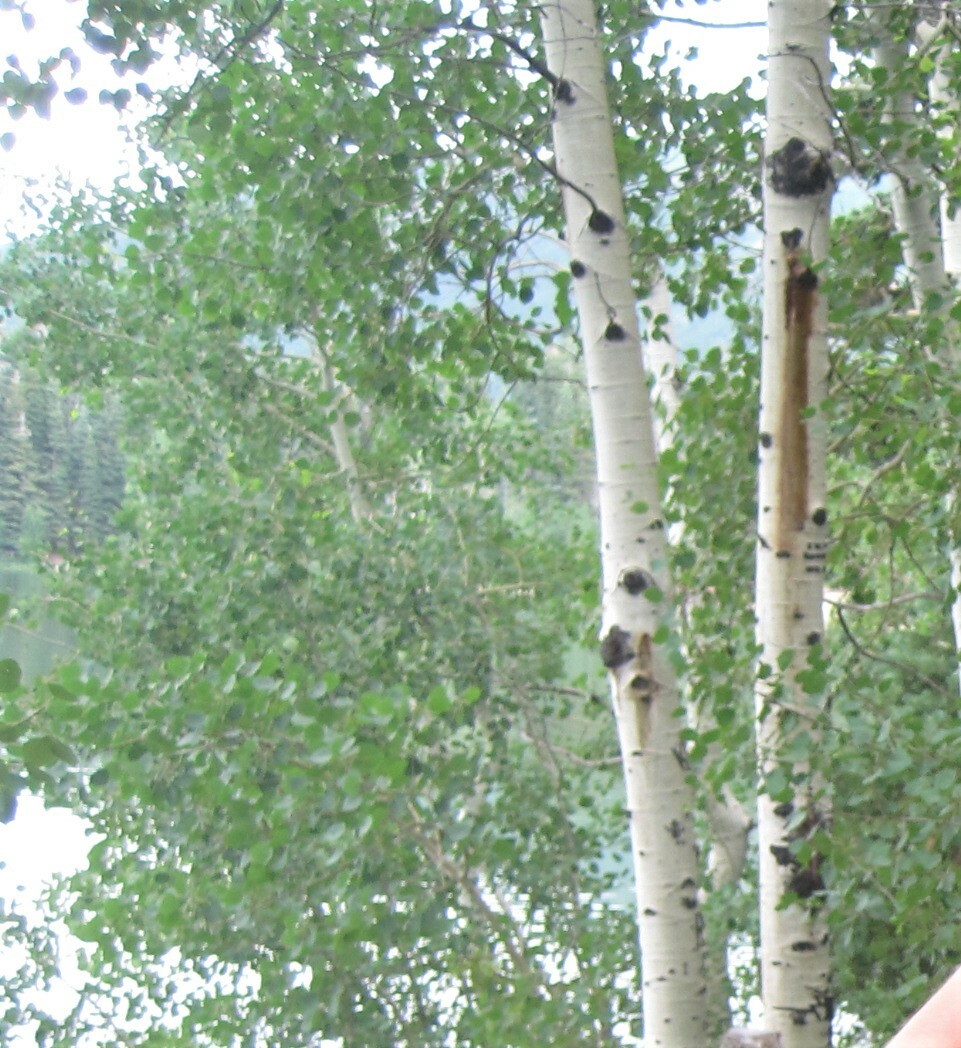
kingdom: Plantae
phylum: Tracheophyta
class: Magnoliopsida
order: Malpighiales
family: Salicaceae
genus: Populus
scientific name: Populus tremuloides
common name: Quaking aspen
